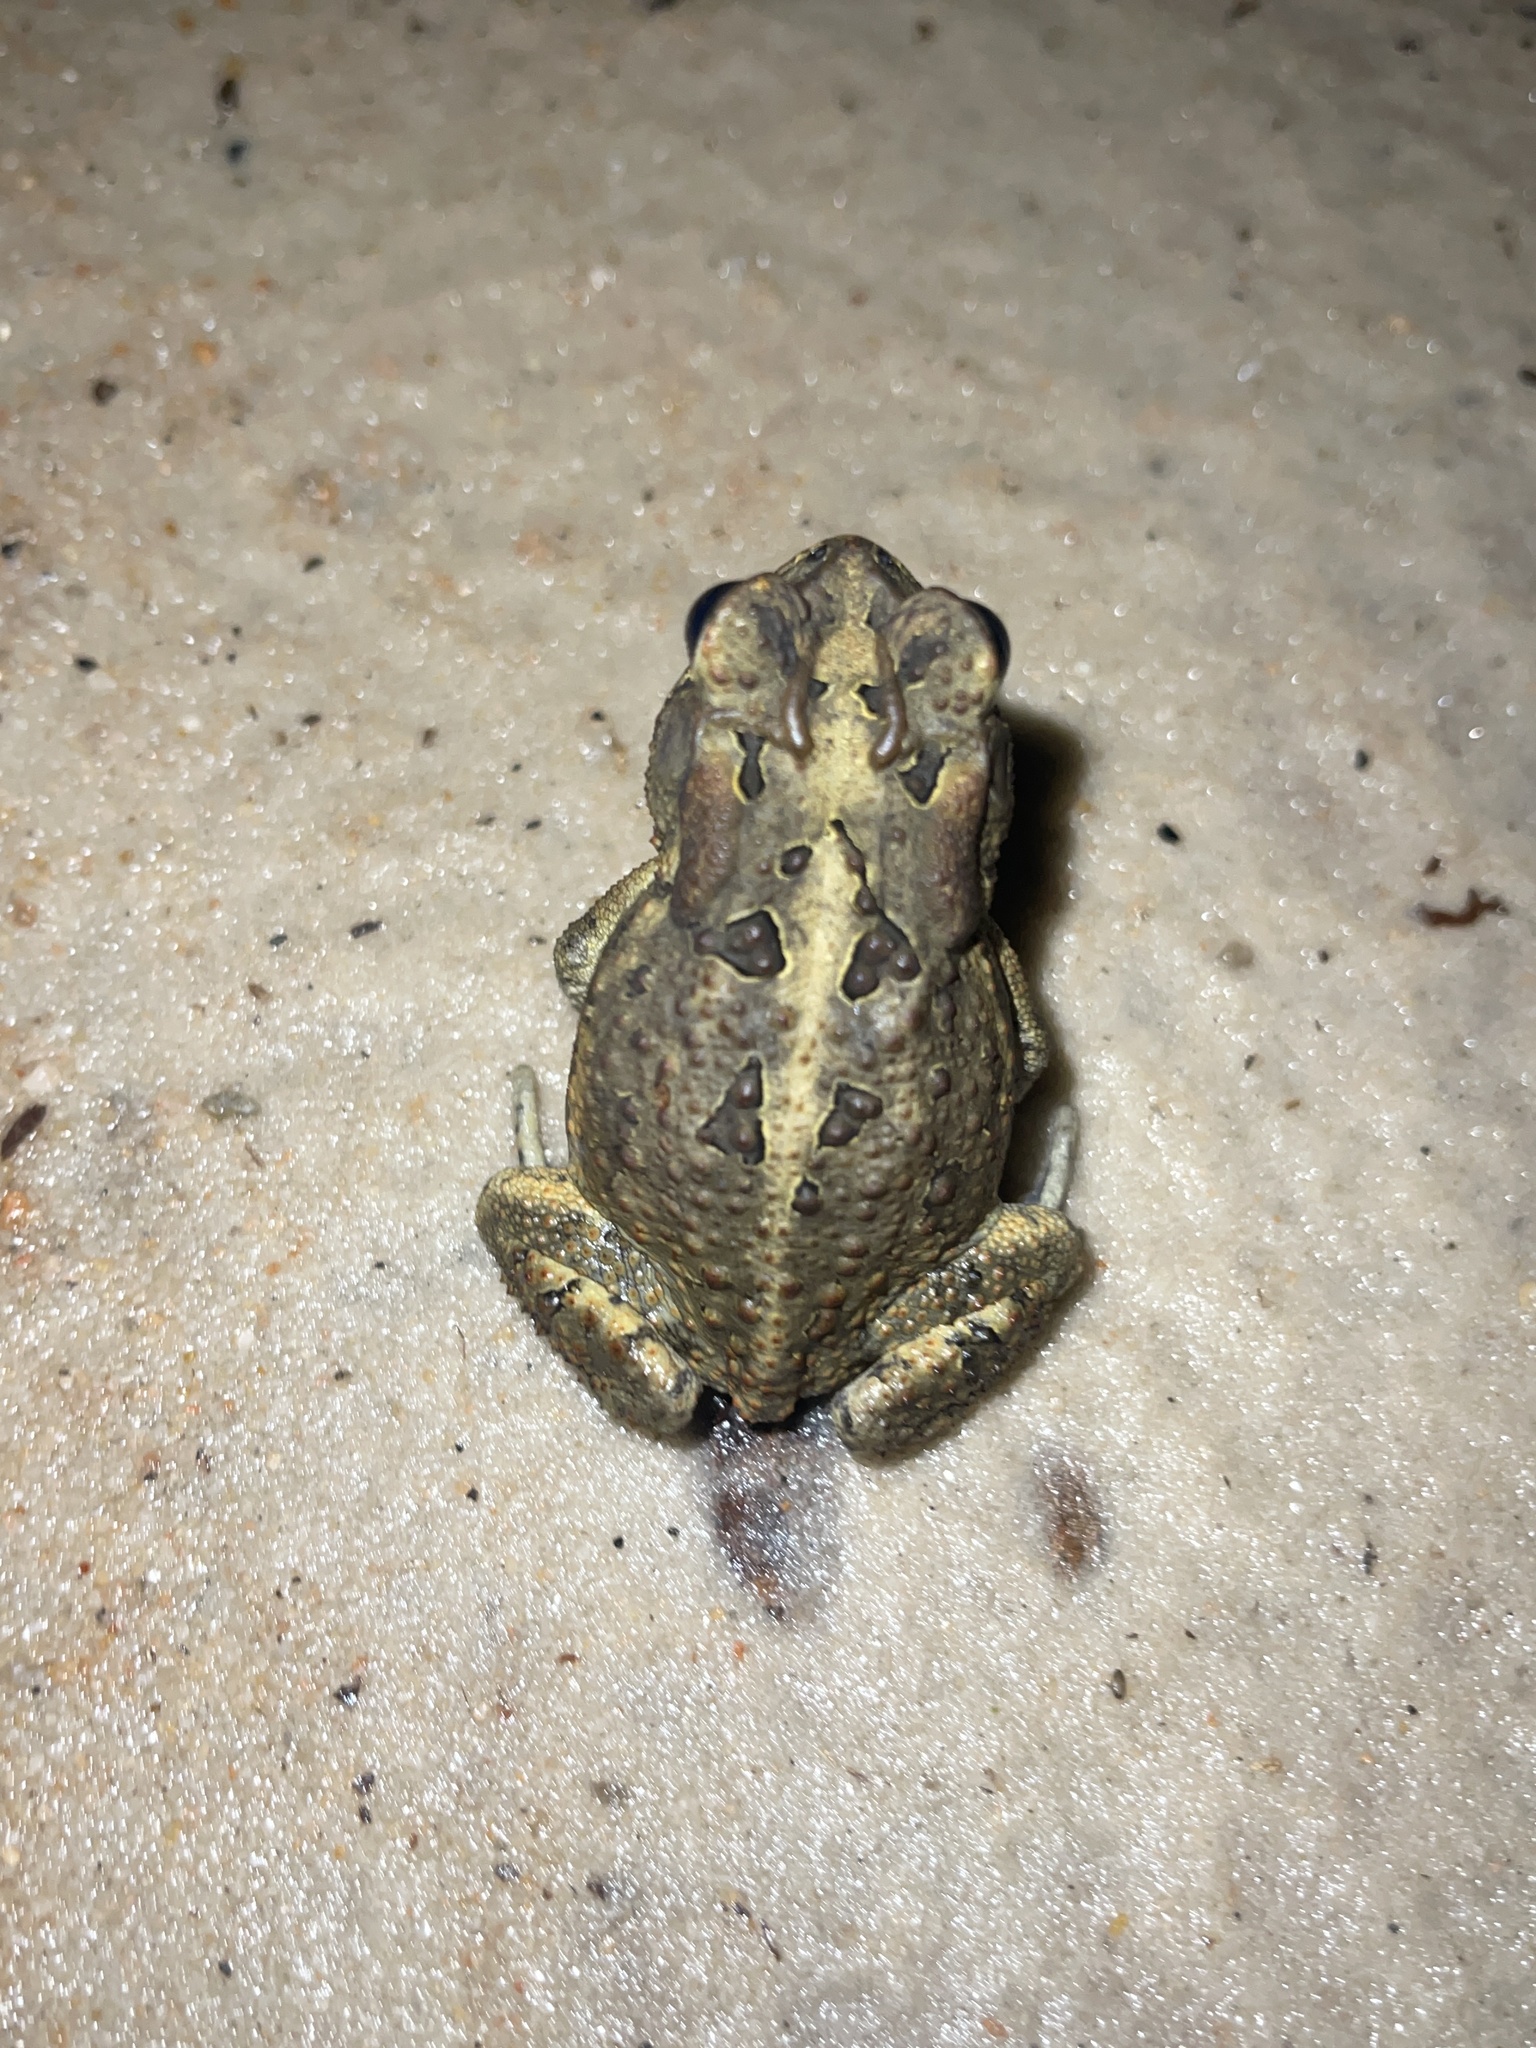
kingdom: Animalia
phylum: Chordata
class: Amphibia
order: Anura
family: Bufonidae
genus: Anaxyrus
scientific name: Anaxyrus terrestris
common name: Southern toad
